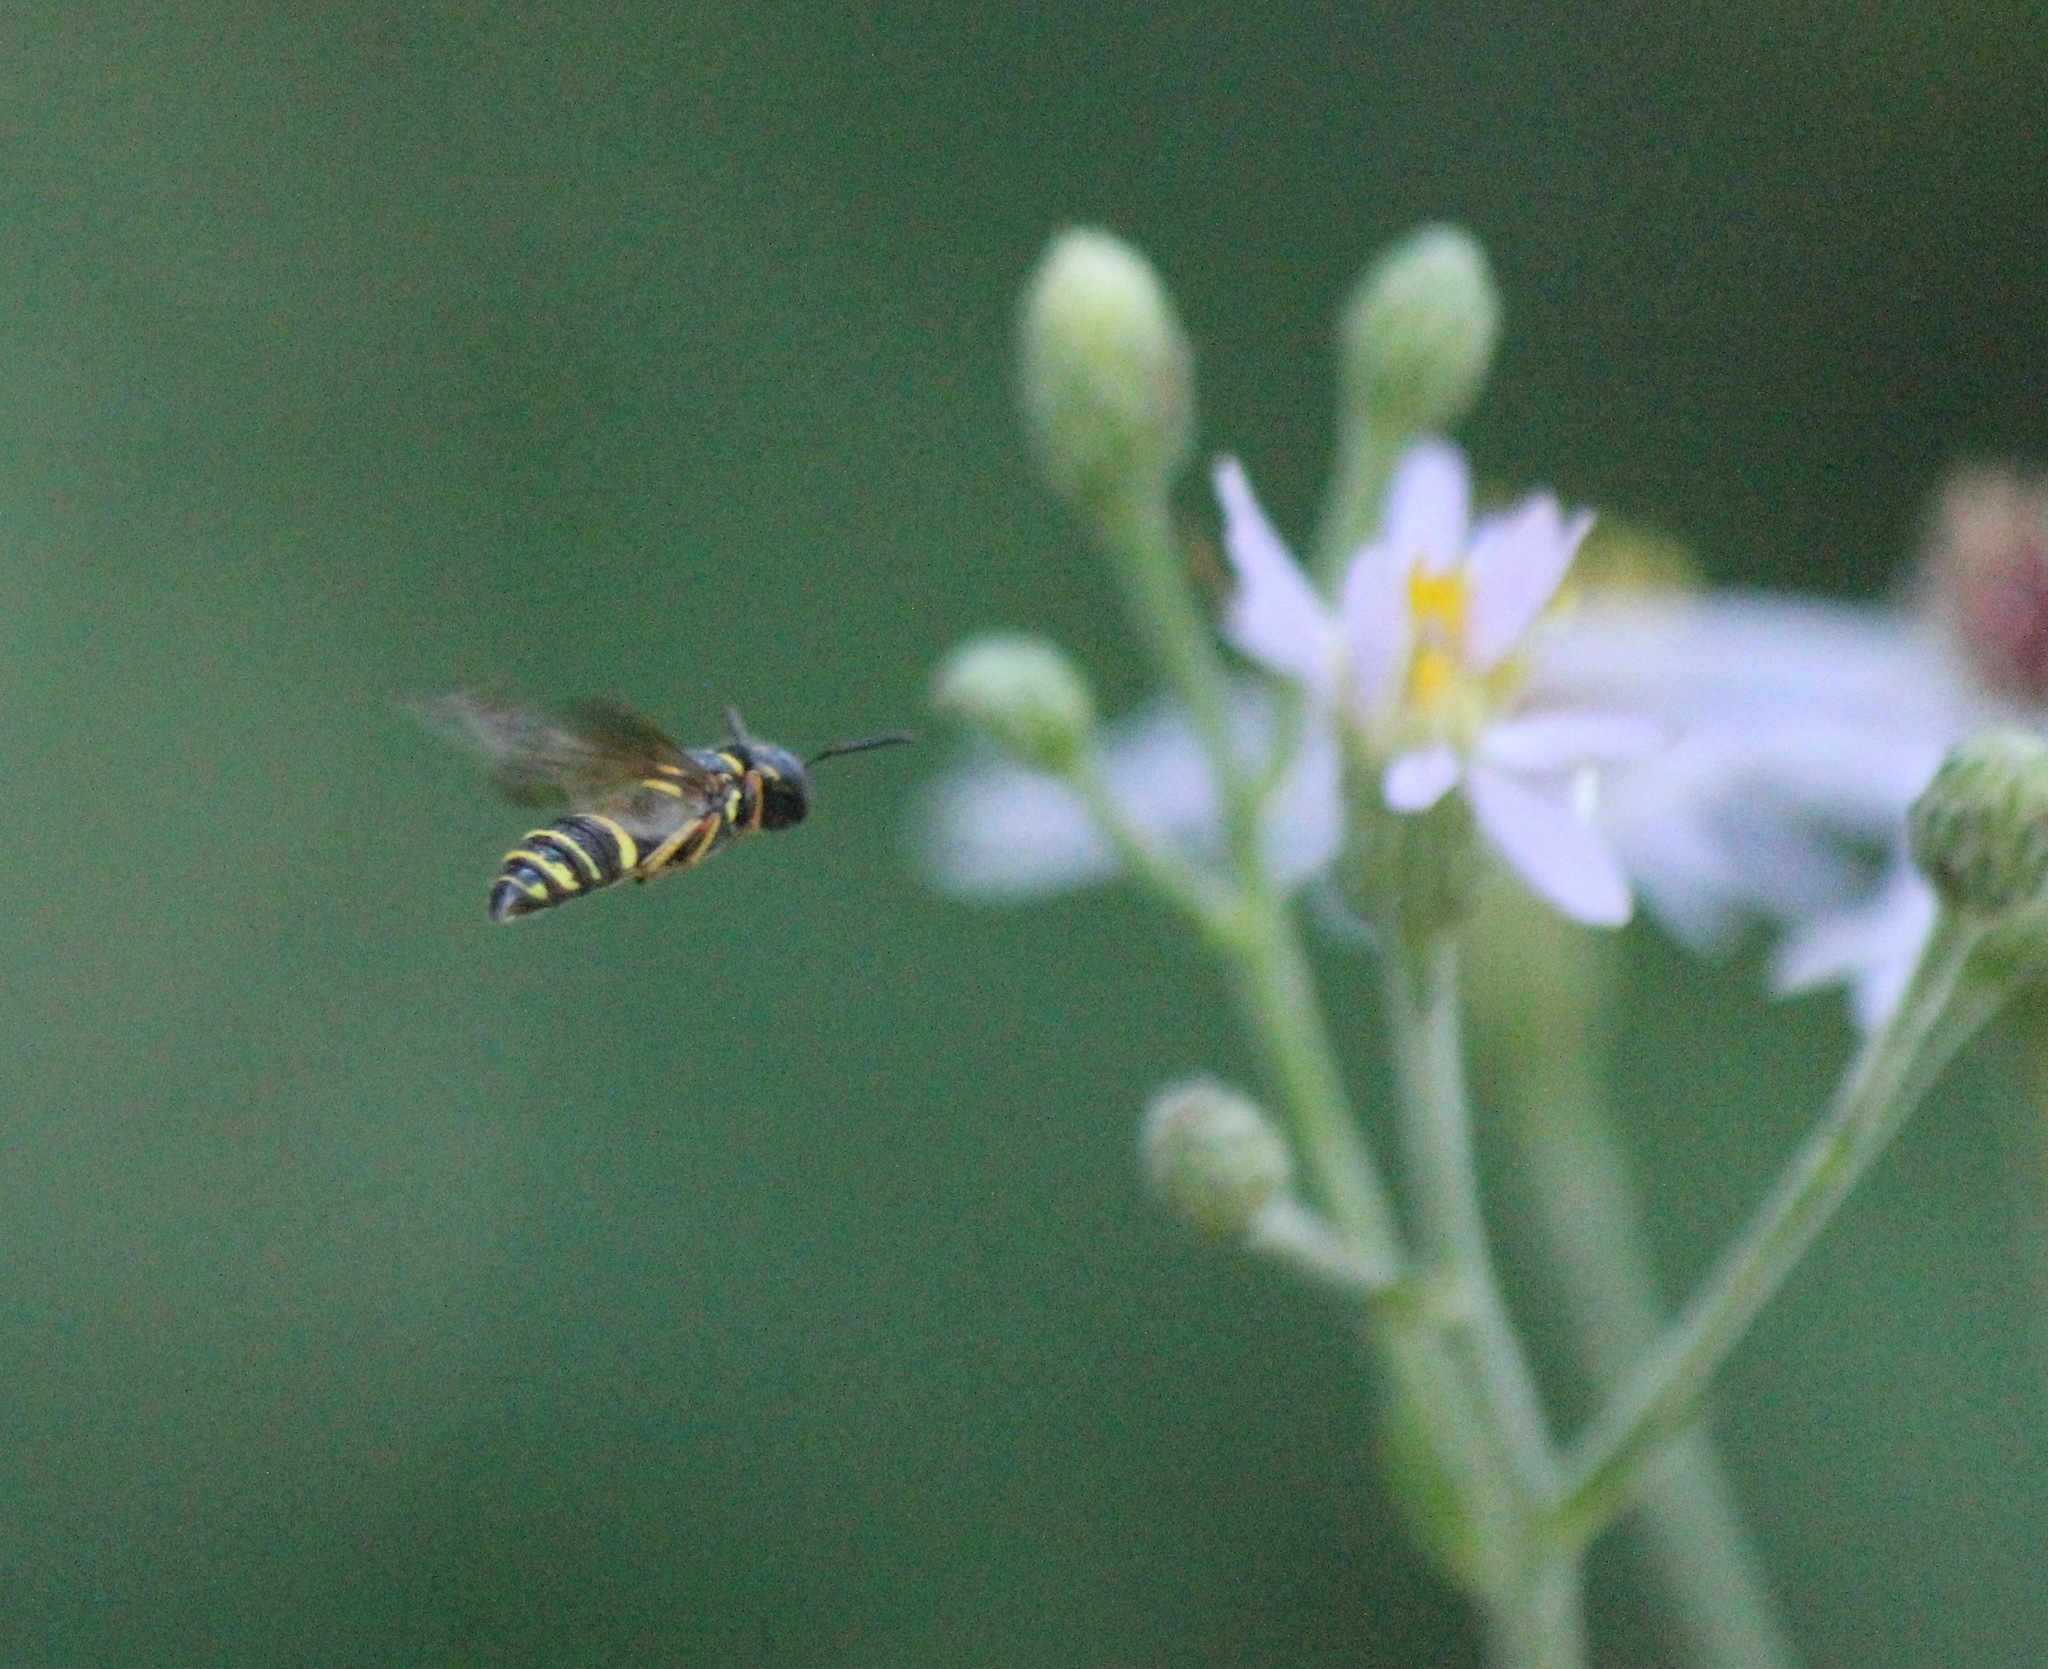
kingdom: Animalia
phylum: Arthropoda
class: Insecta
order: Hymenoptera
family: Crabronidae
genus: Philanthus
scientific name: Philanthus gibbosus
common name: Humped beewolf
